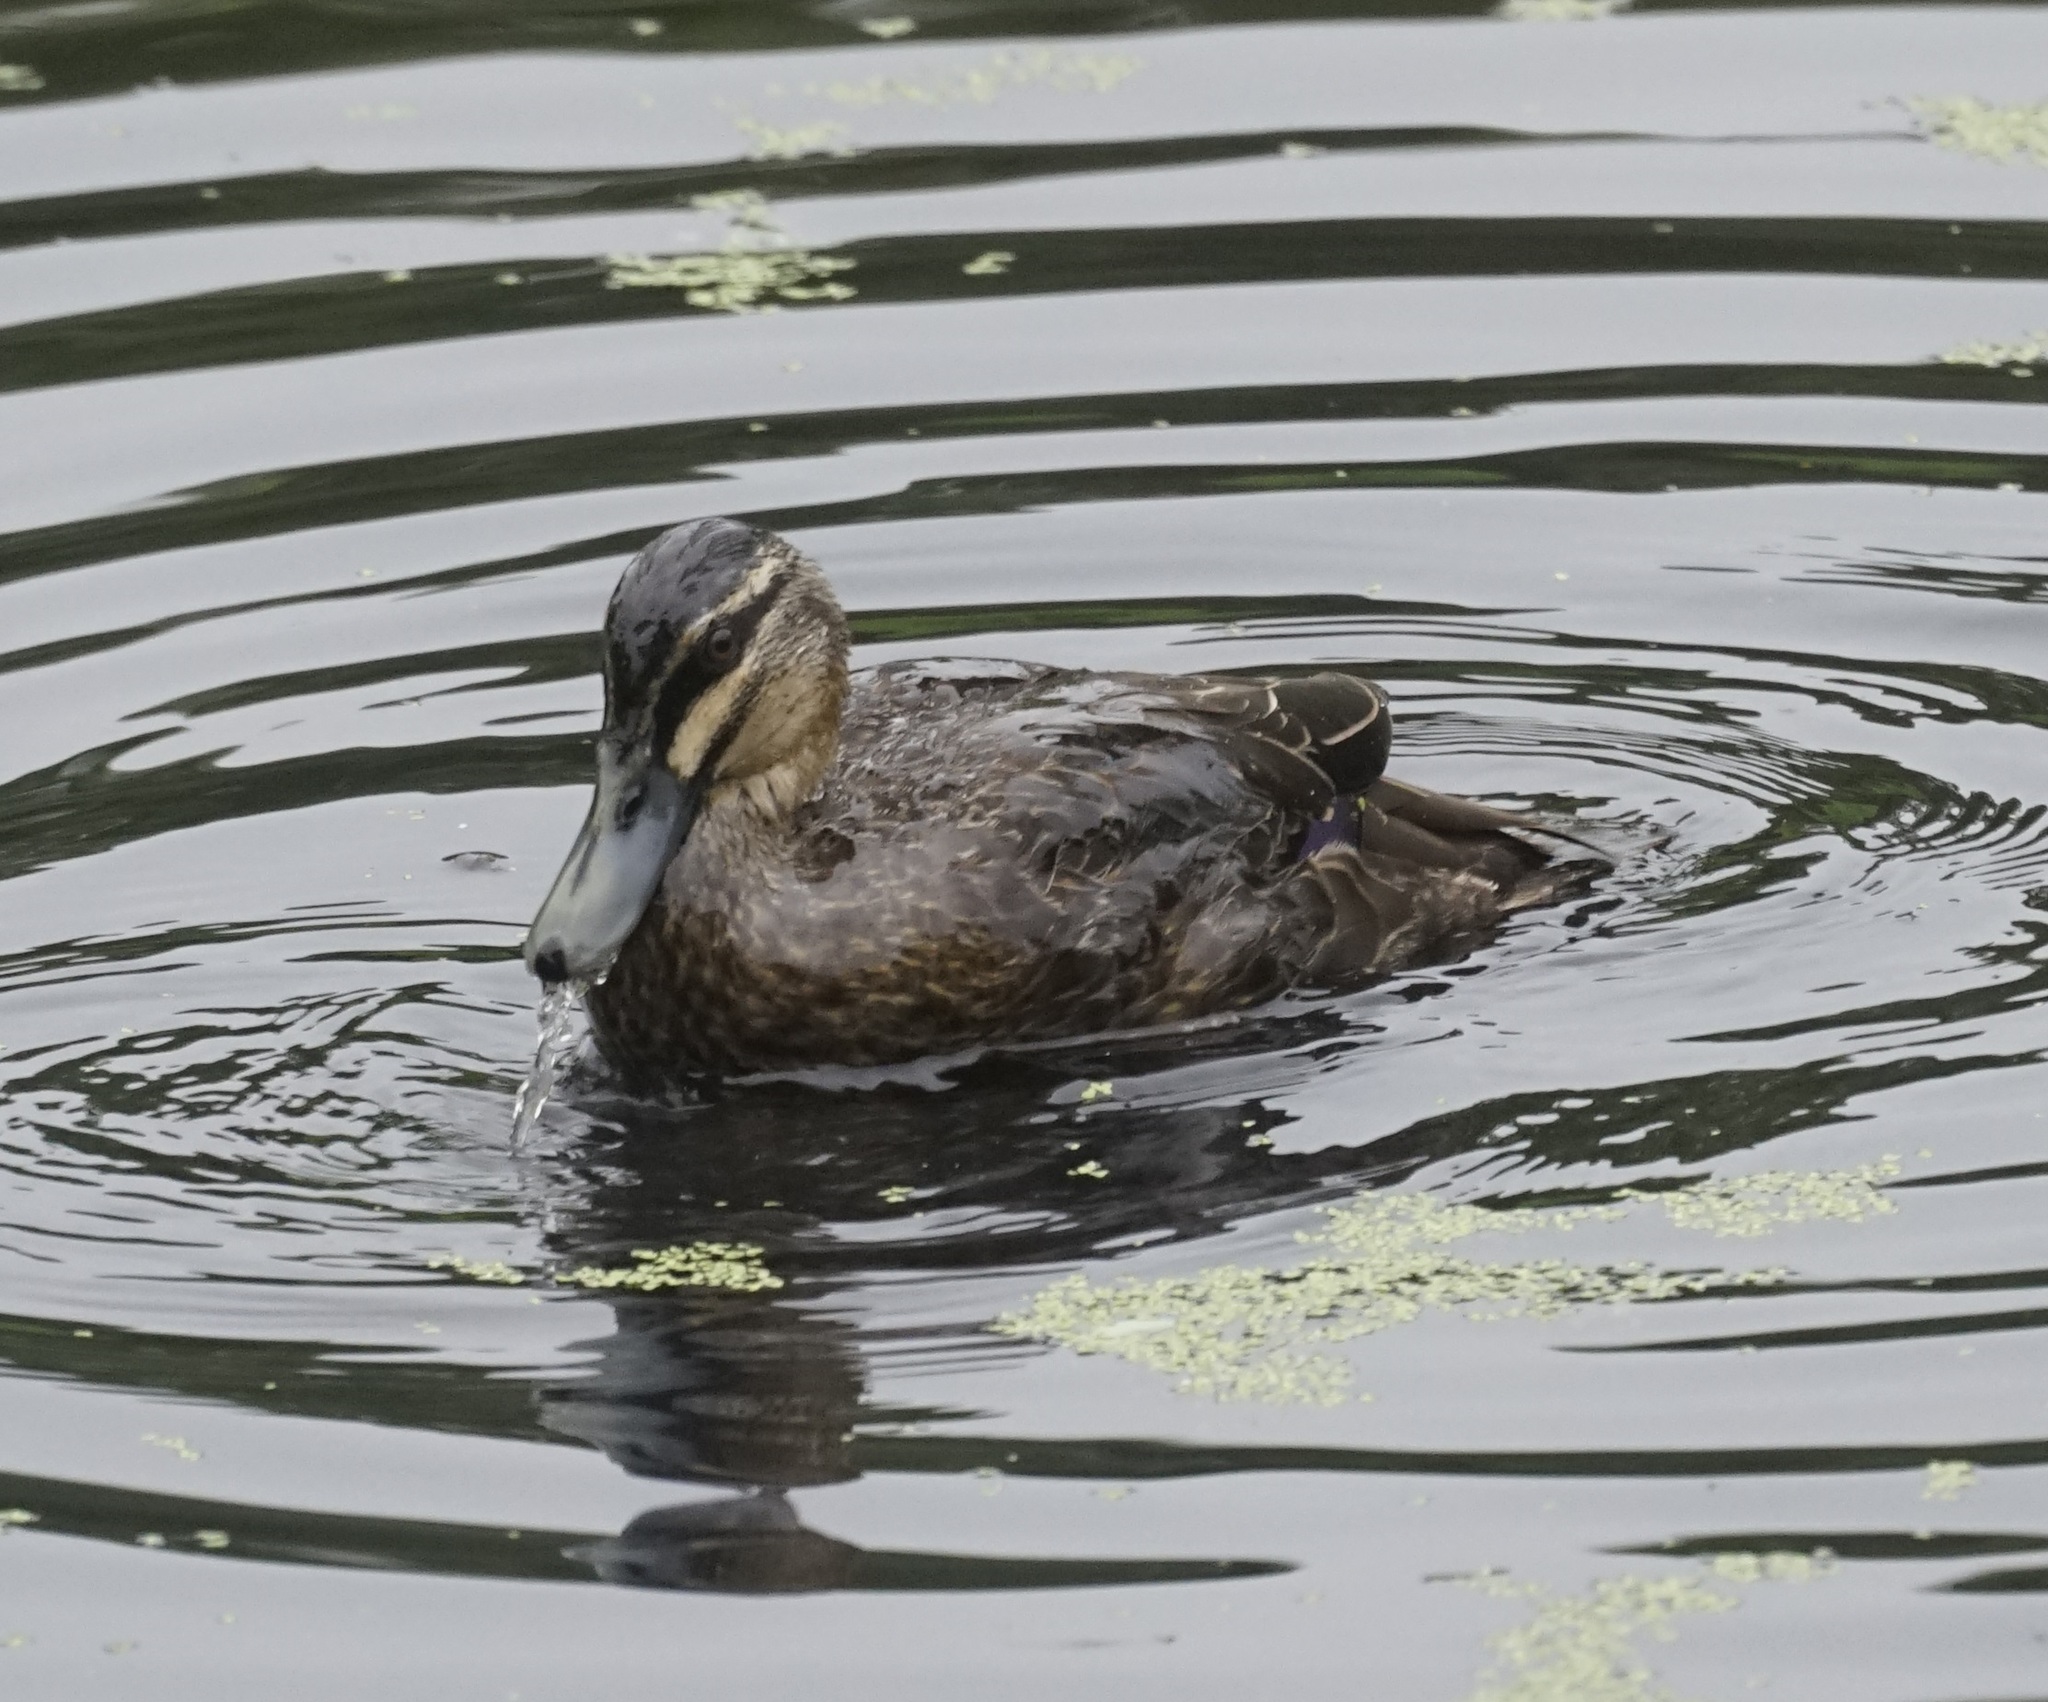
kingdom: Animalia
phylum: Chordata
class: Aves
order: Anseriformes
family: Anatidae
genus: Anas
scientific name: Anas superciliosa
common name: Pacific black duck
